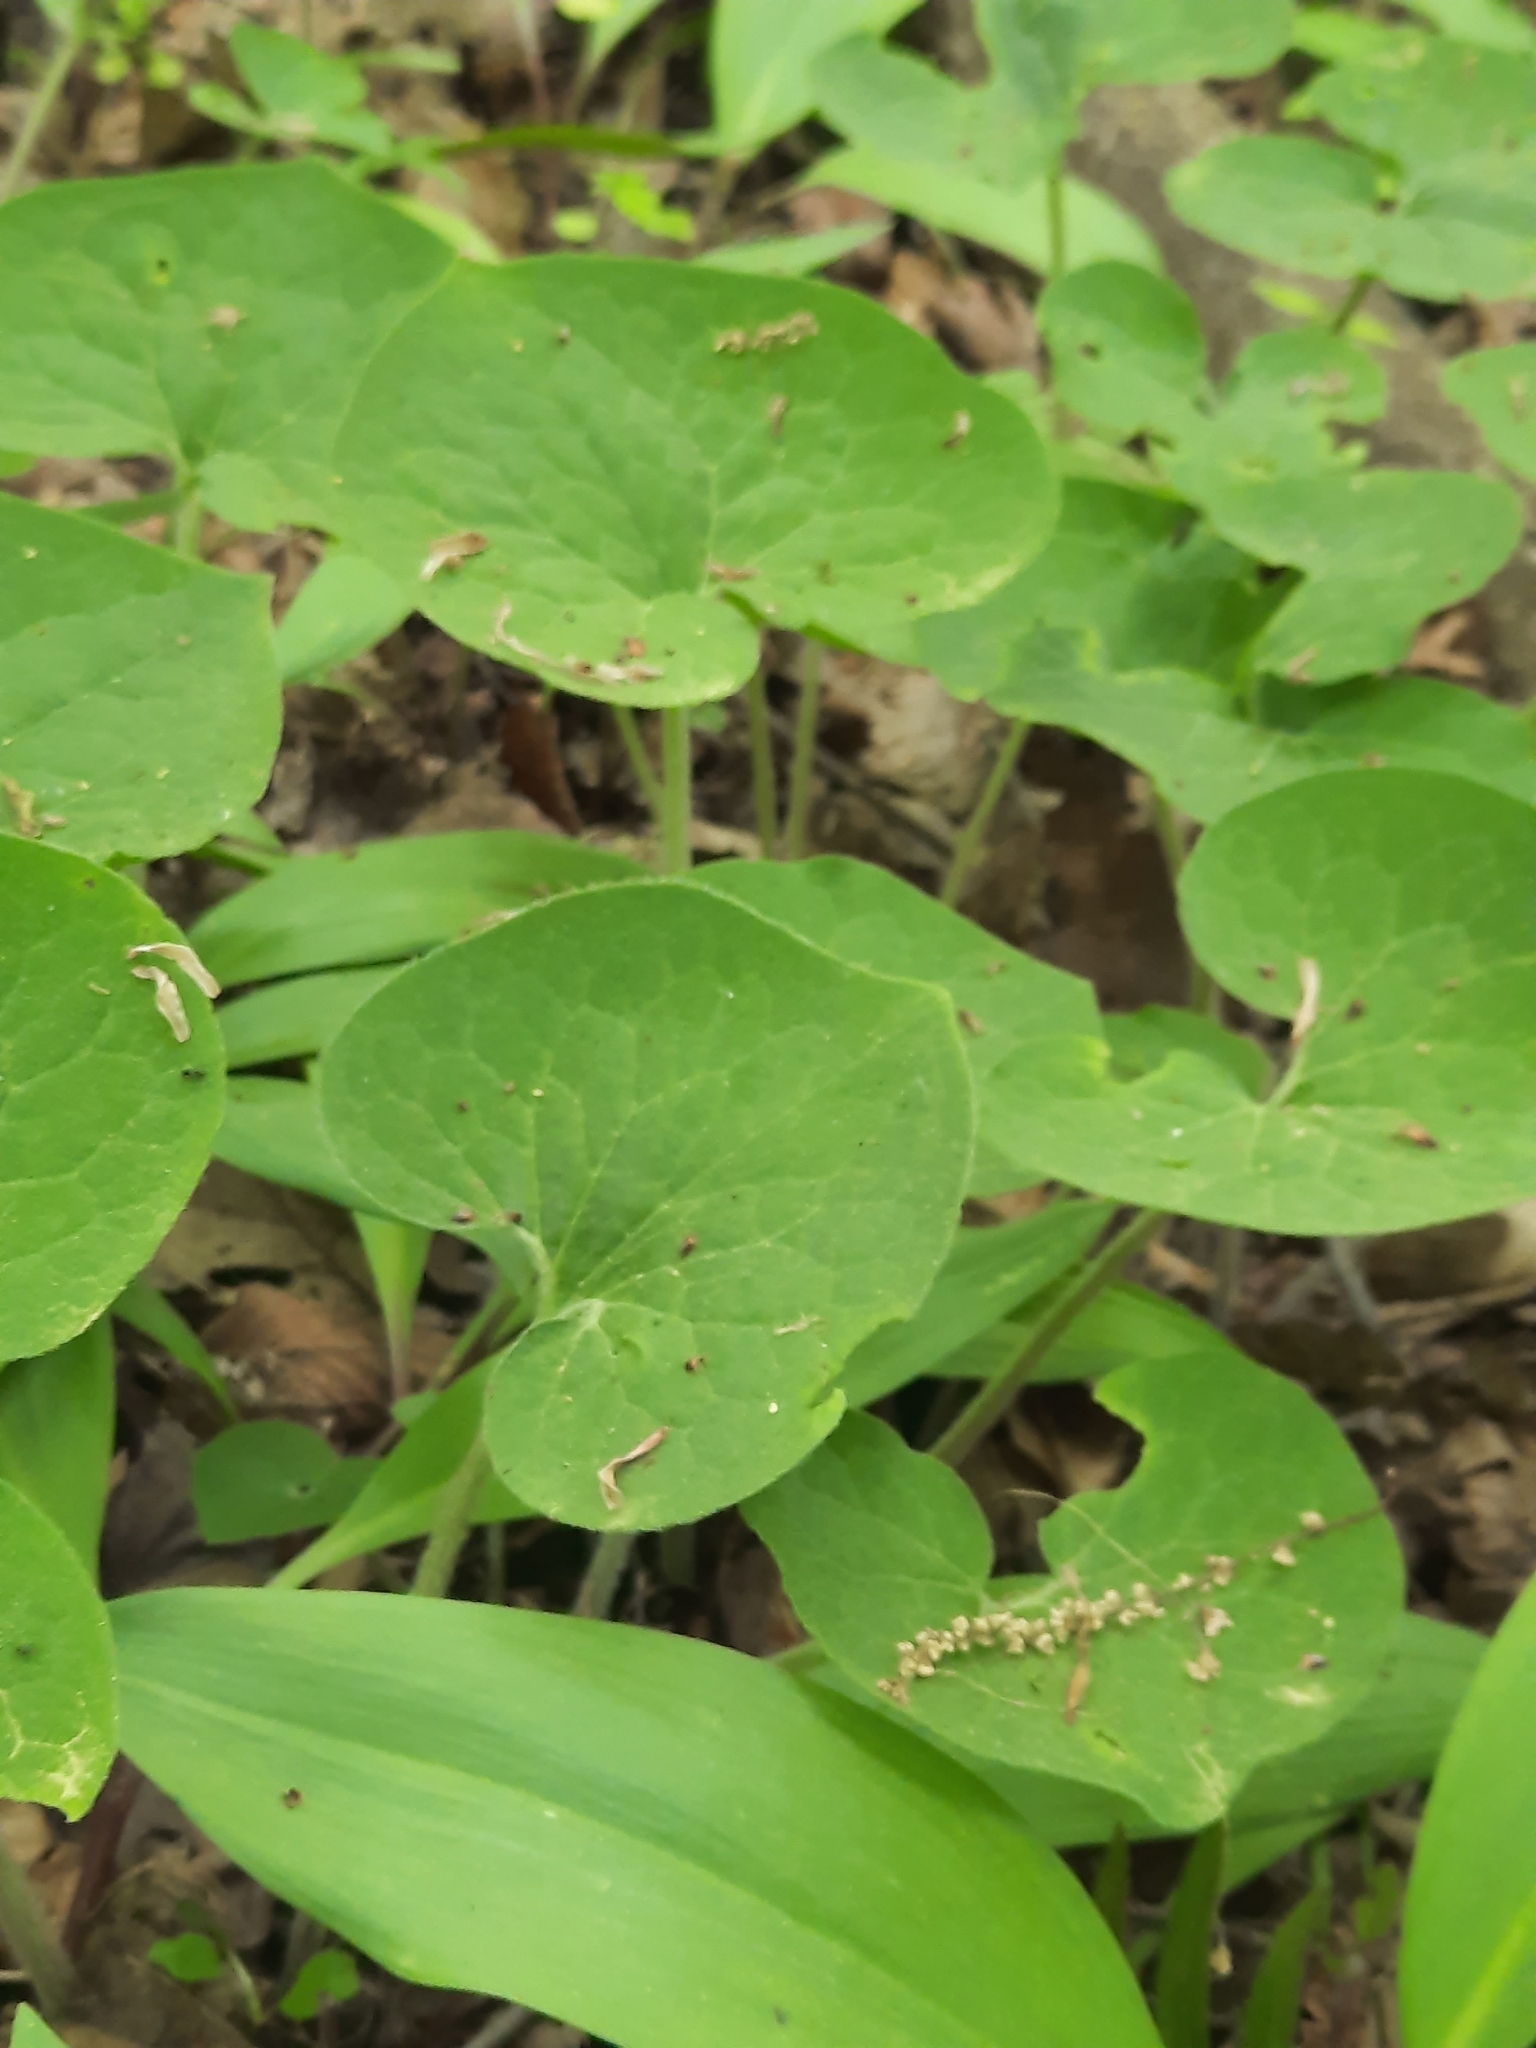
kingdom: Plantae
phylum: Tracheophyta
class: Magnoliopsida
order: Piperales
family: Aristolochiaceae
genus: Asarum
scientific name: Asarum canadense
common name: Wild ginger
